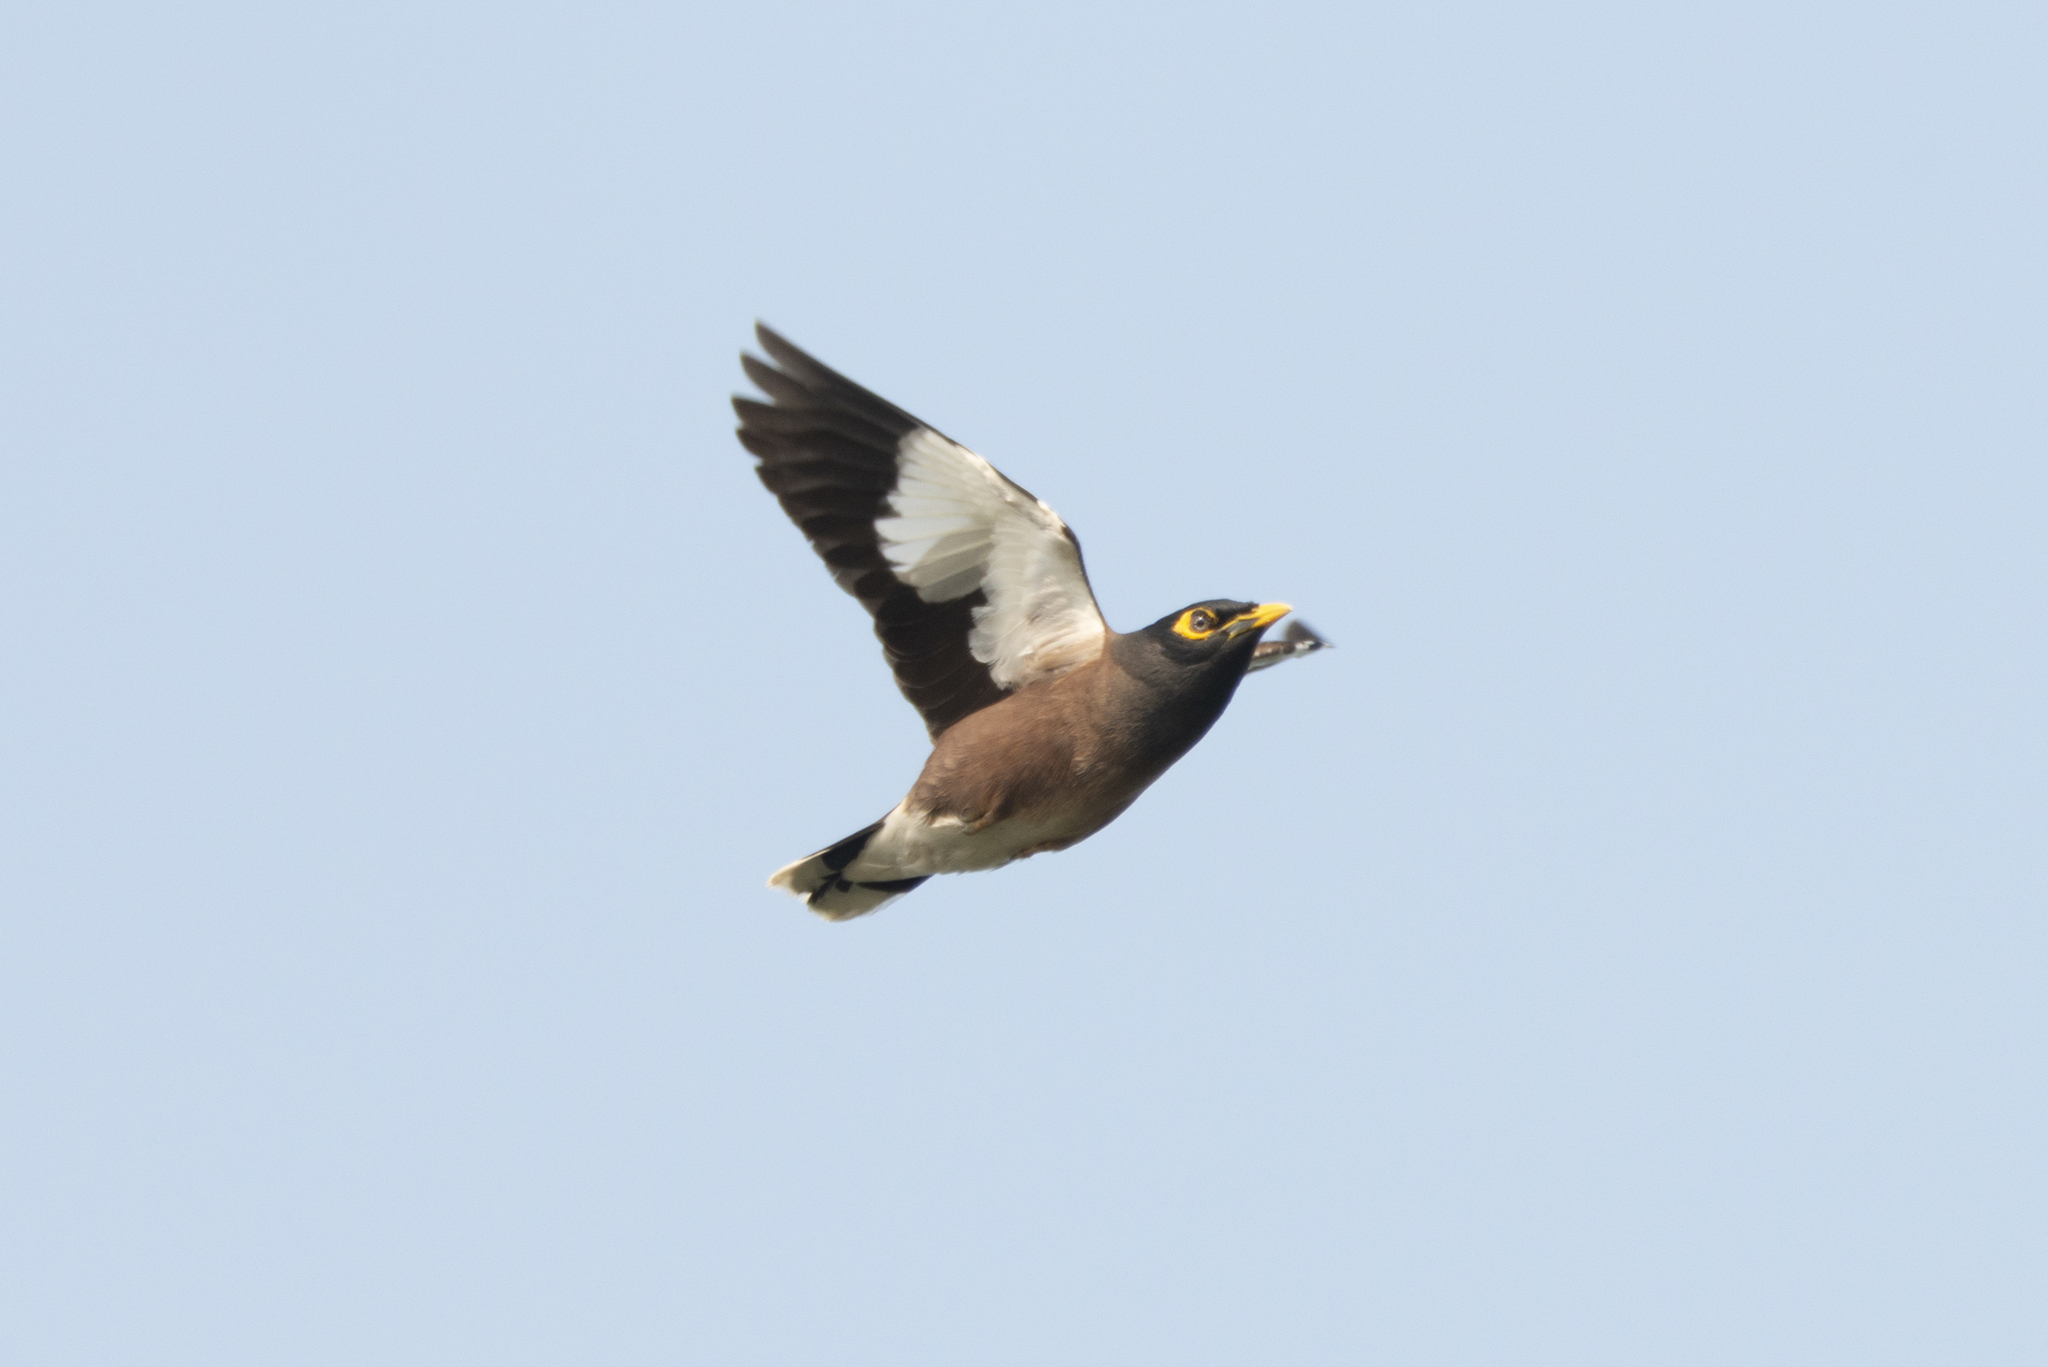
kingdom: Animalia
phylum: Chordata
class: Aves
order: Passeriformes
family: Sturnidae
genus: Acridotheres
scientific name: Acridotheres tristis
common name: Common myna
